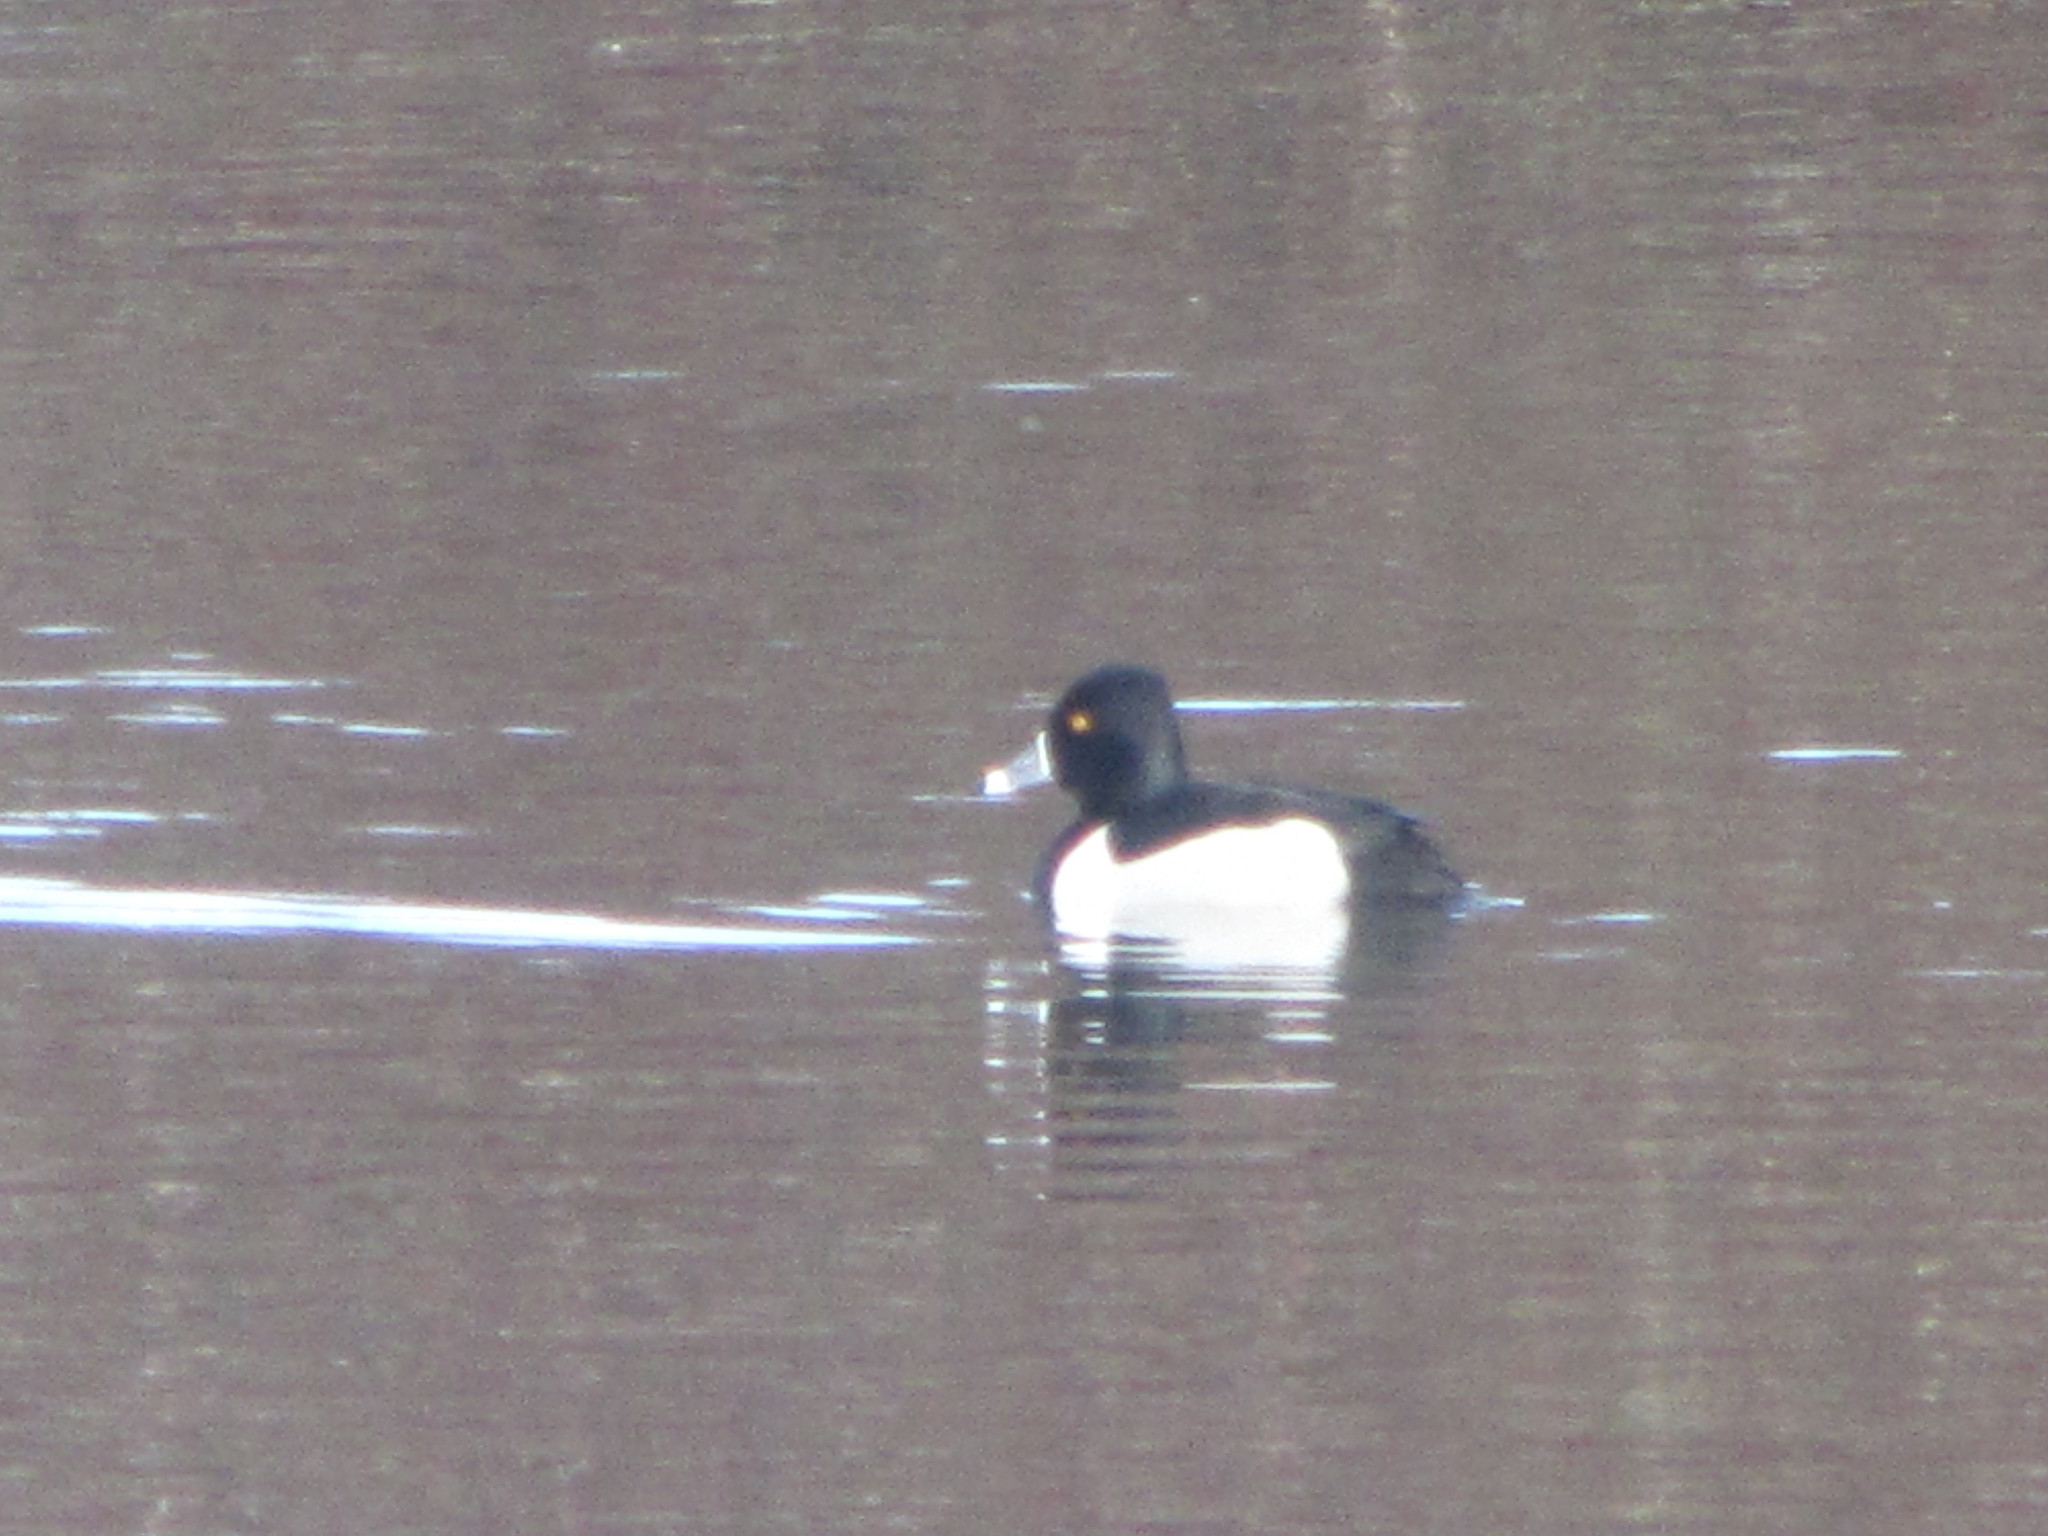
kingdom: Animalia
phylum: Chordata
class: Aves
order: Anseriformes
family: Anatidae
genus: Aythya
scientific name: Aythya collaris
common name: Ring-necked duck
